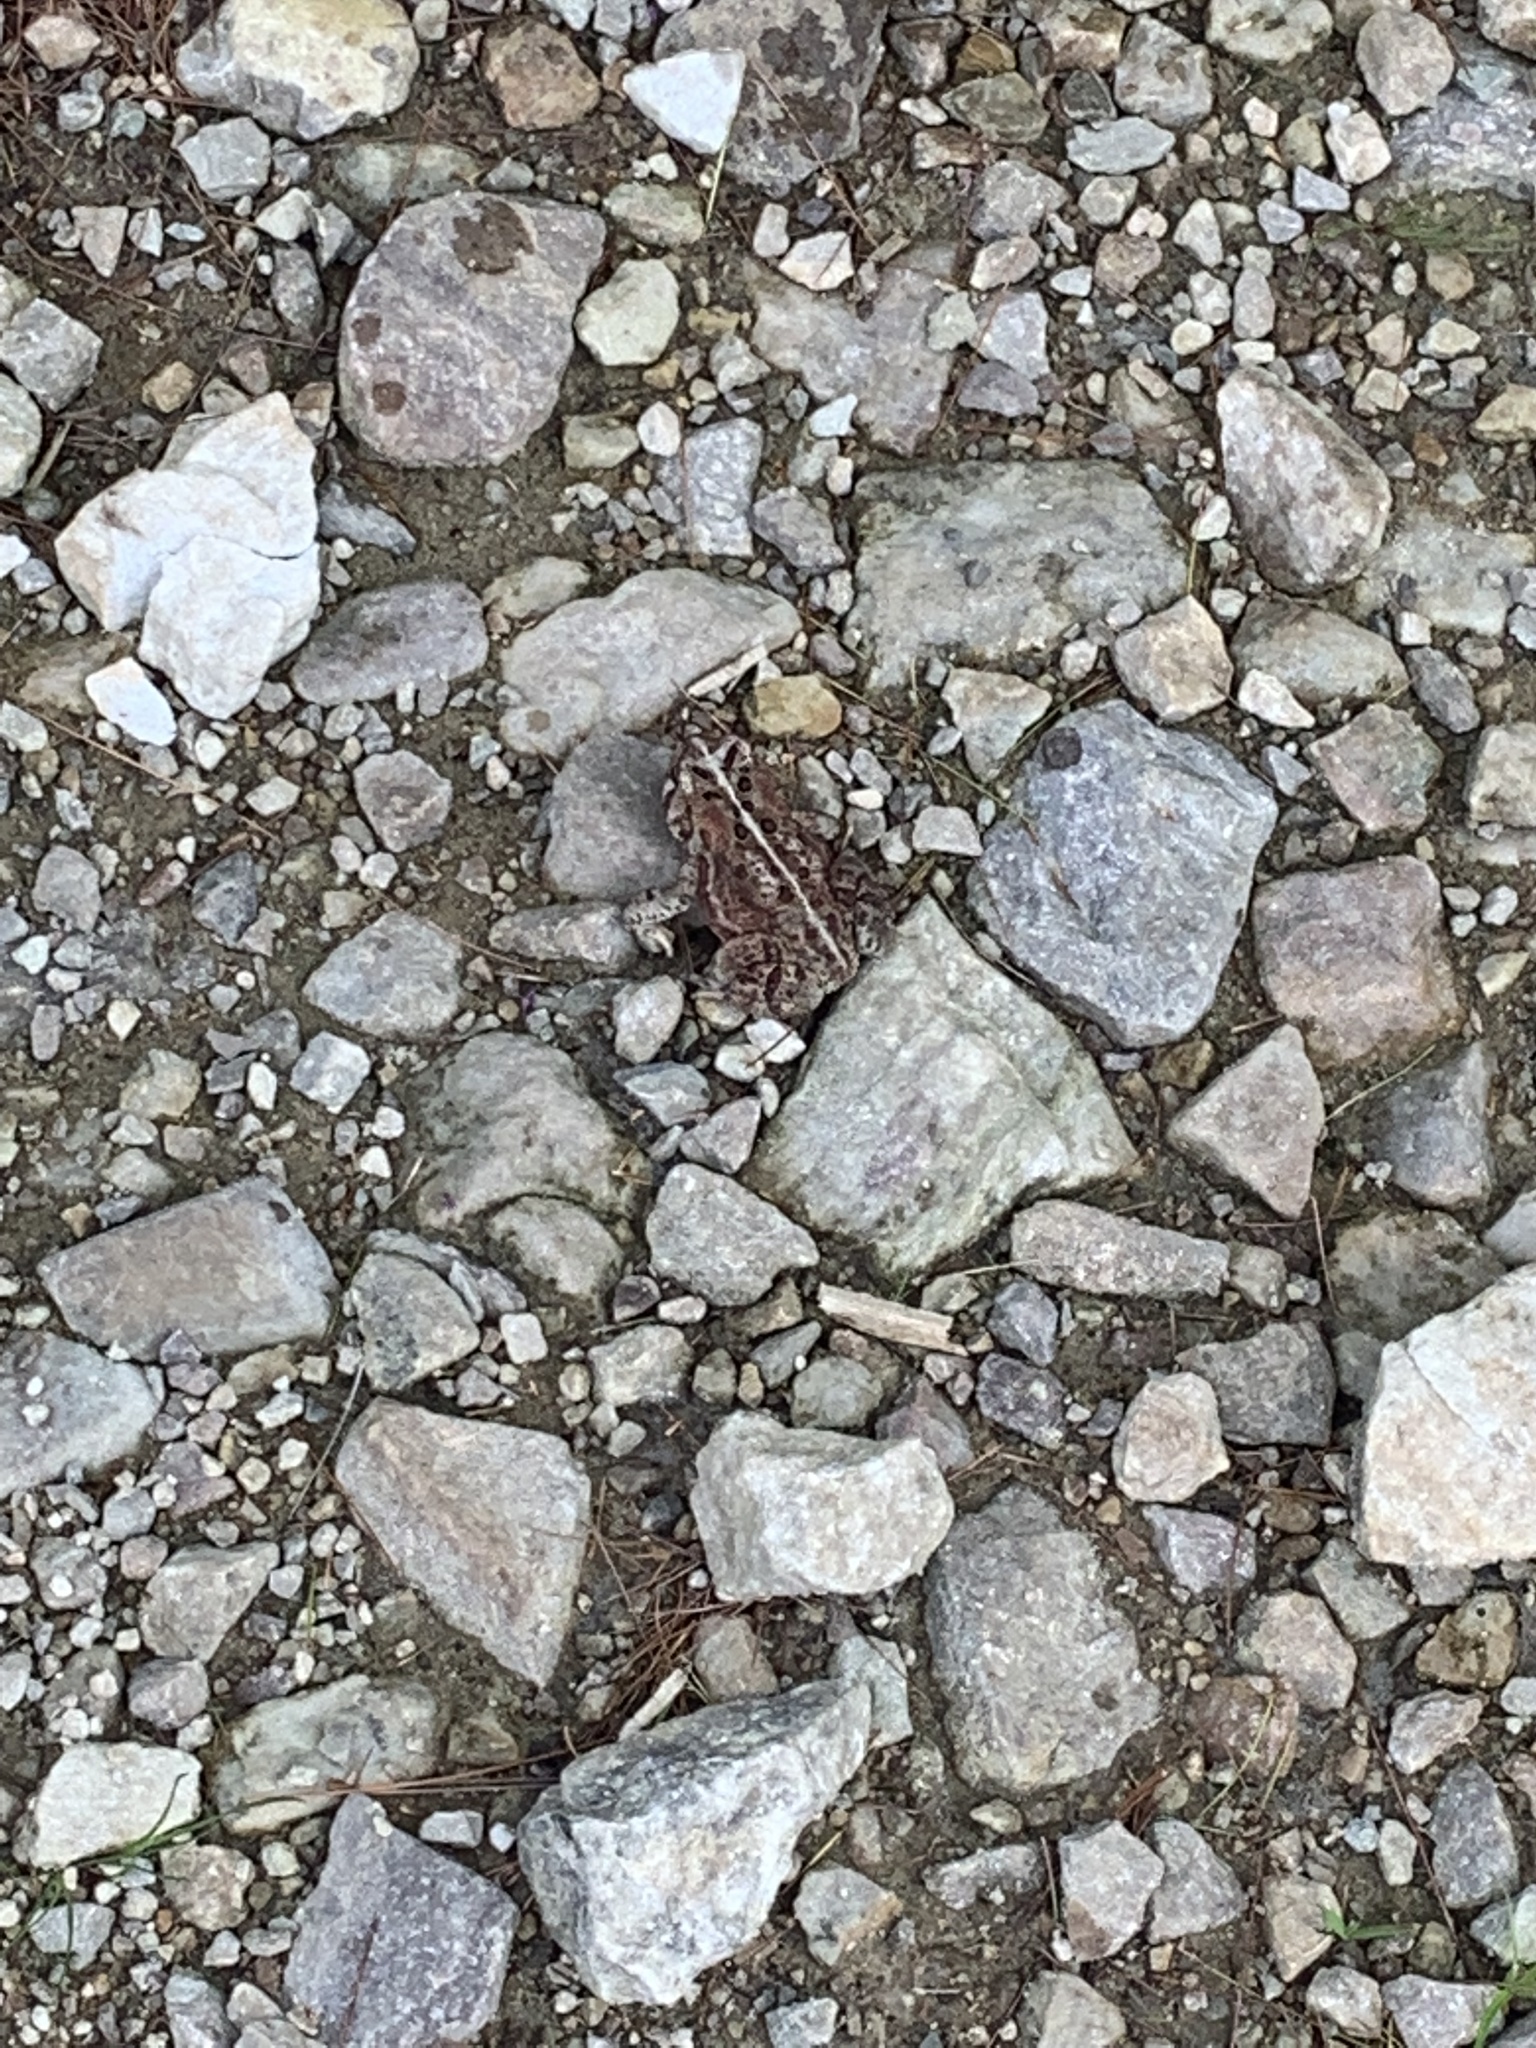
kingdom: Animalia
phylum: Chordata
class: Amphibia
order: Anura
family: Bufonidae
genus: Anaxyrus
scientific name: Anaxyrus americanus
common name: American toad
